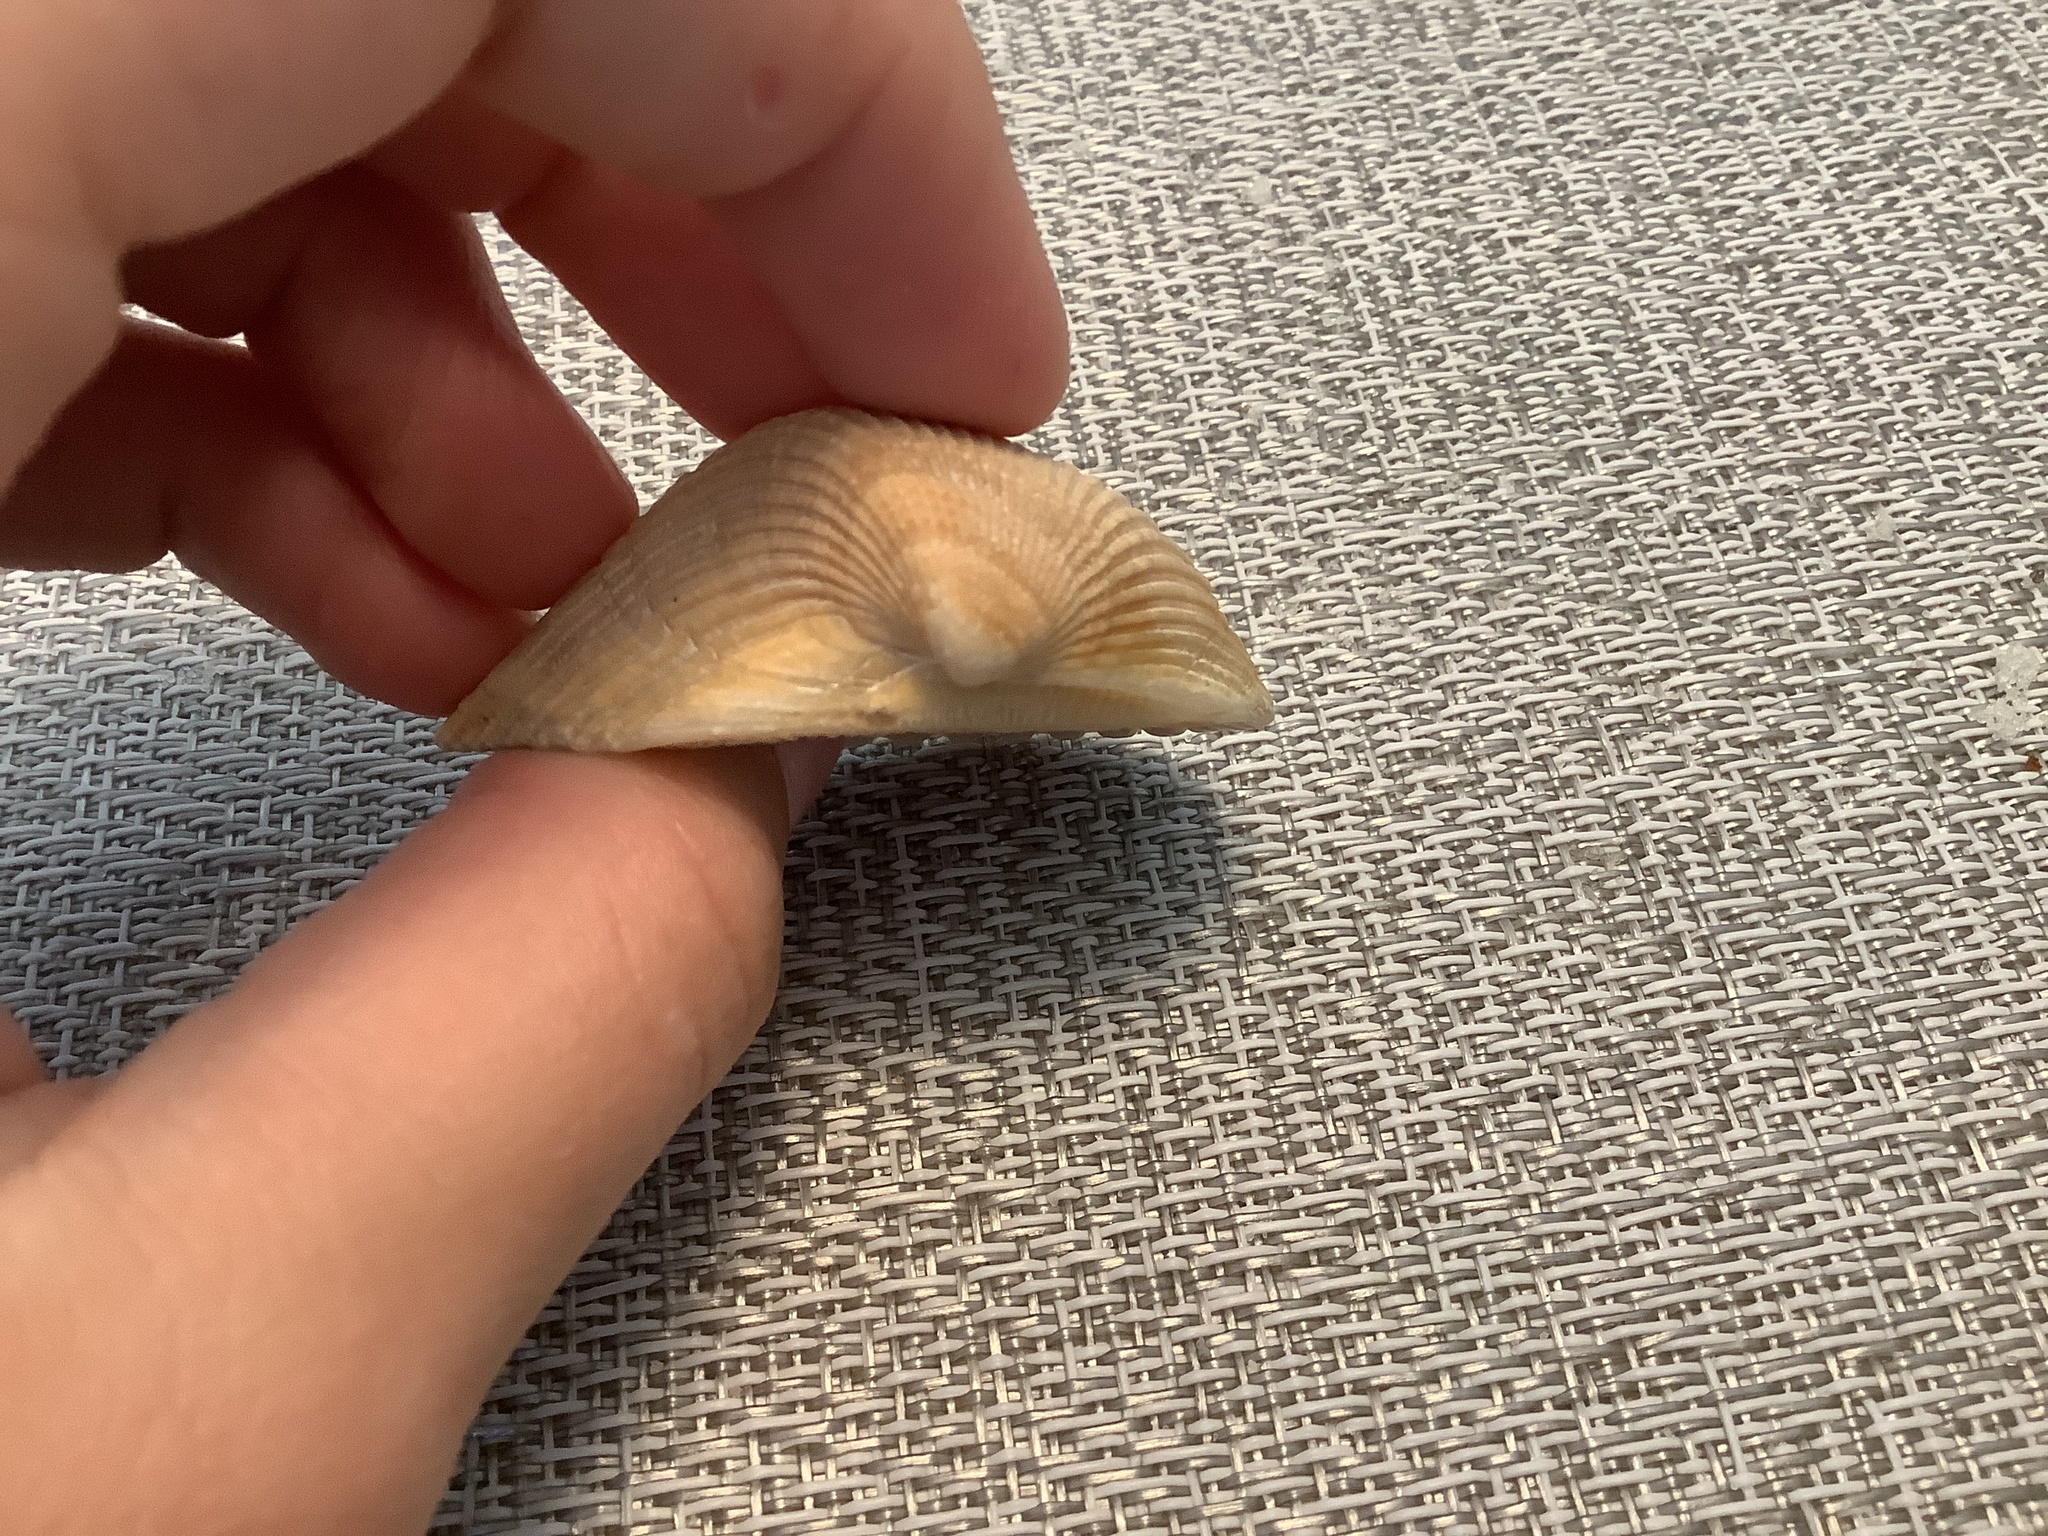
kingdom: Animalia
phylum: Mollusca
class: Bivalvia
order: Arcida
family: Noetiidae
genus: Noetia
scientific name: Noetia ponderosa
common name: Ponderous ark
